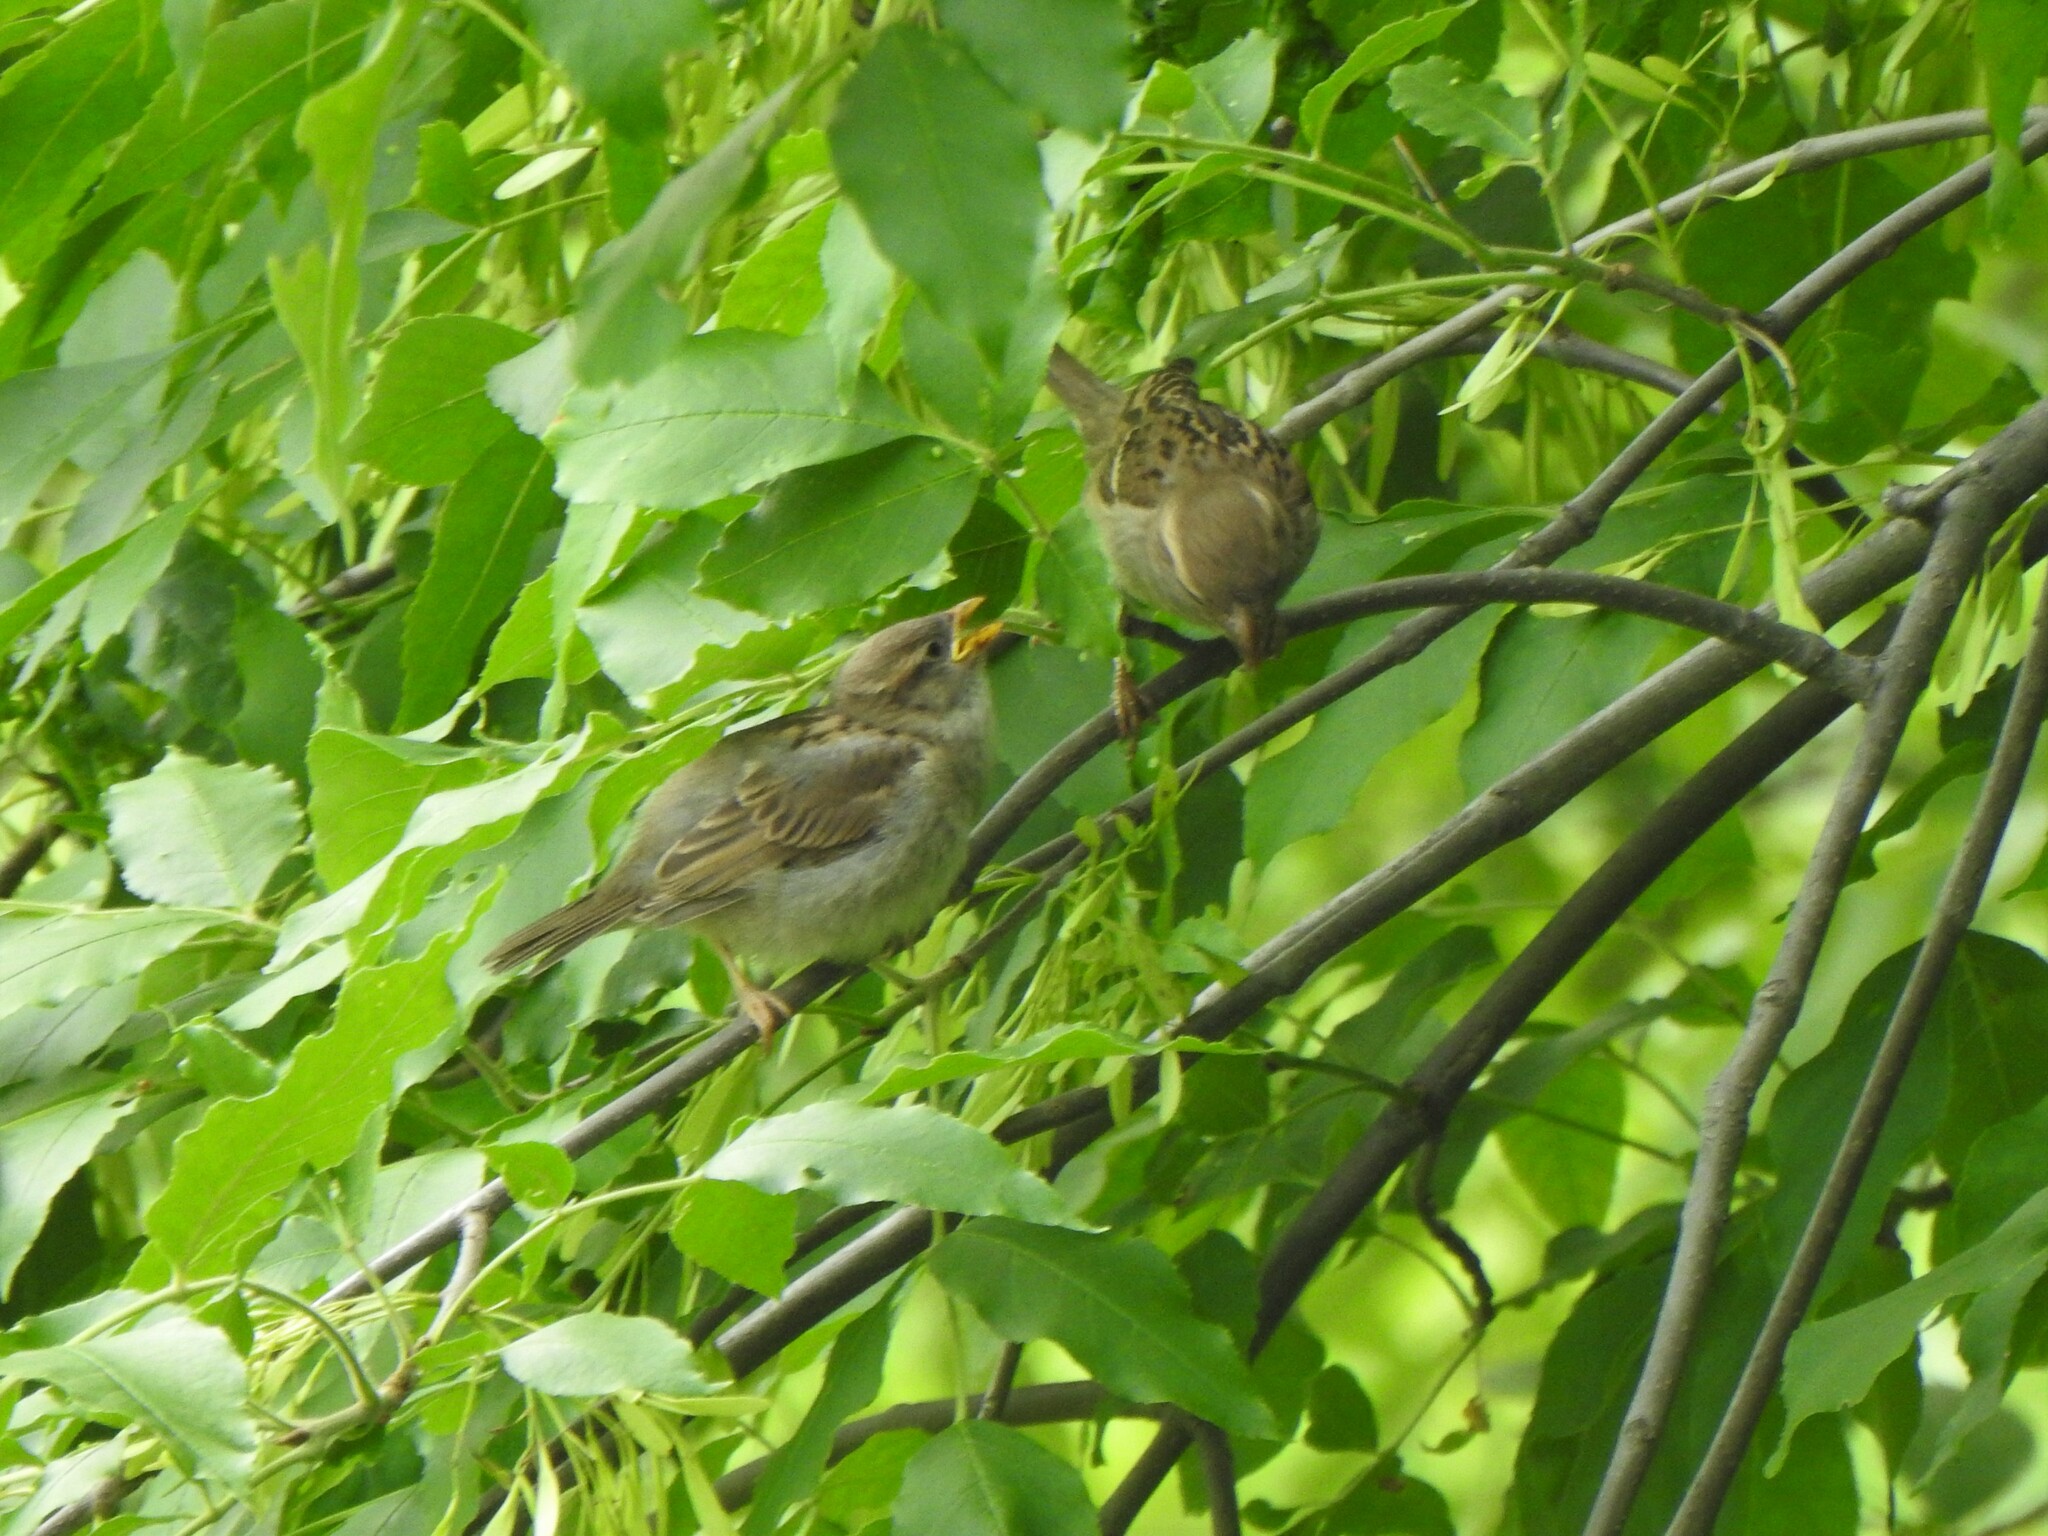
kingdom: Animalia
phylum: Chordata
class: Aves
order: Passeriformes
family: Passeridae
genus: Passer
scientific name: Passer domesticus
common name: House sparrow
